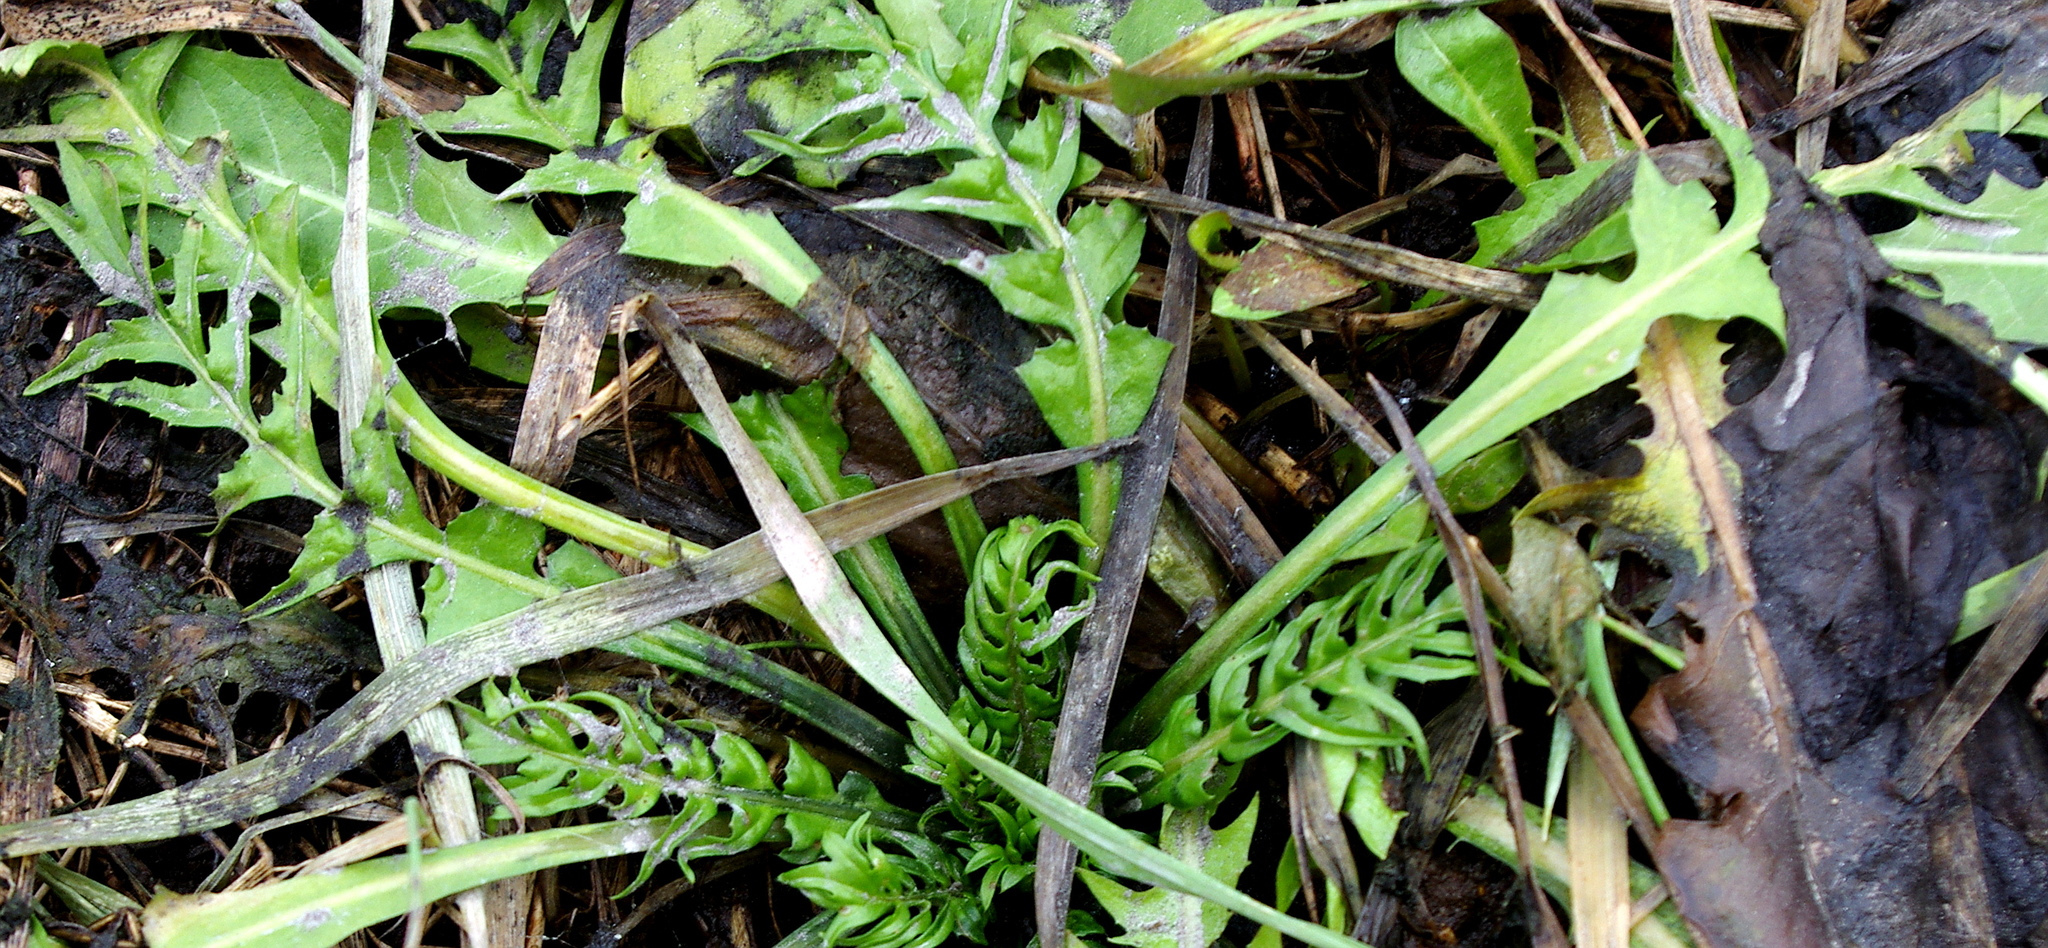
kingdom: Plantae
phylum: Tracheophyta
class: Magnoliopsida
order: Brassicales
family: Brassicaceae
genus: Capsella
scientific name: Capsella bursa-pastoris
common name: Shepherd's purse
